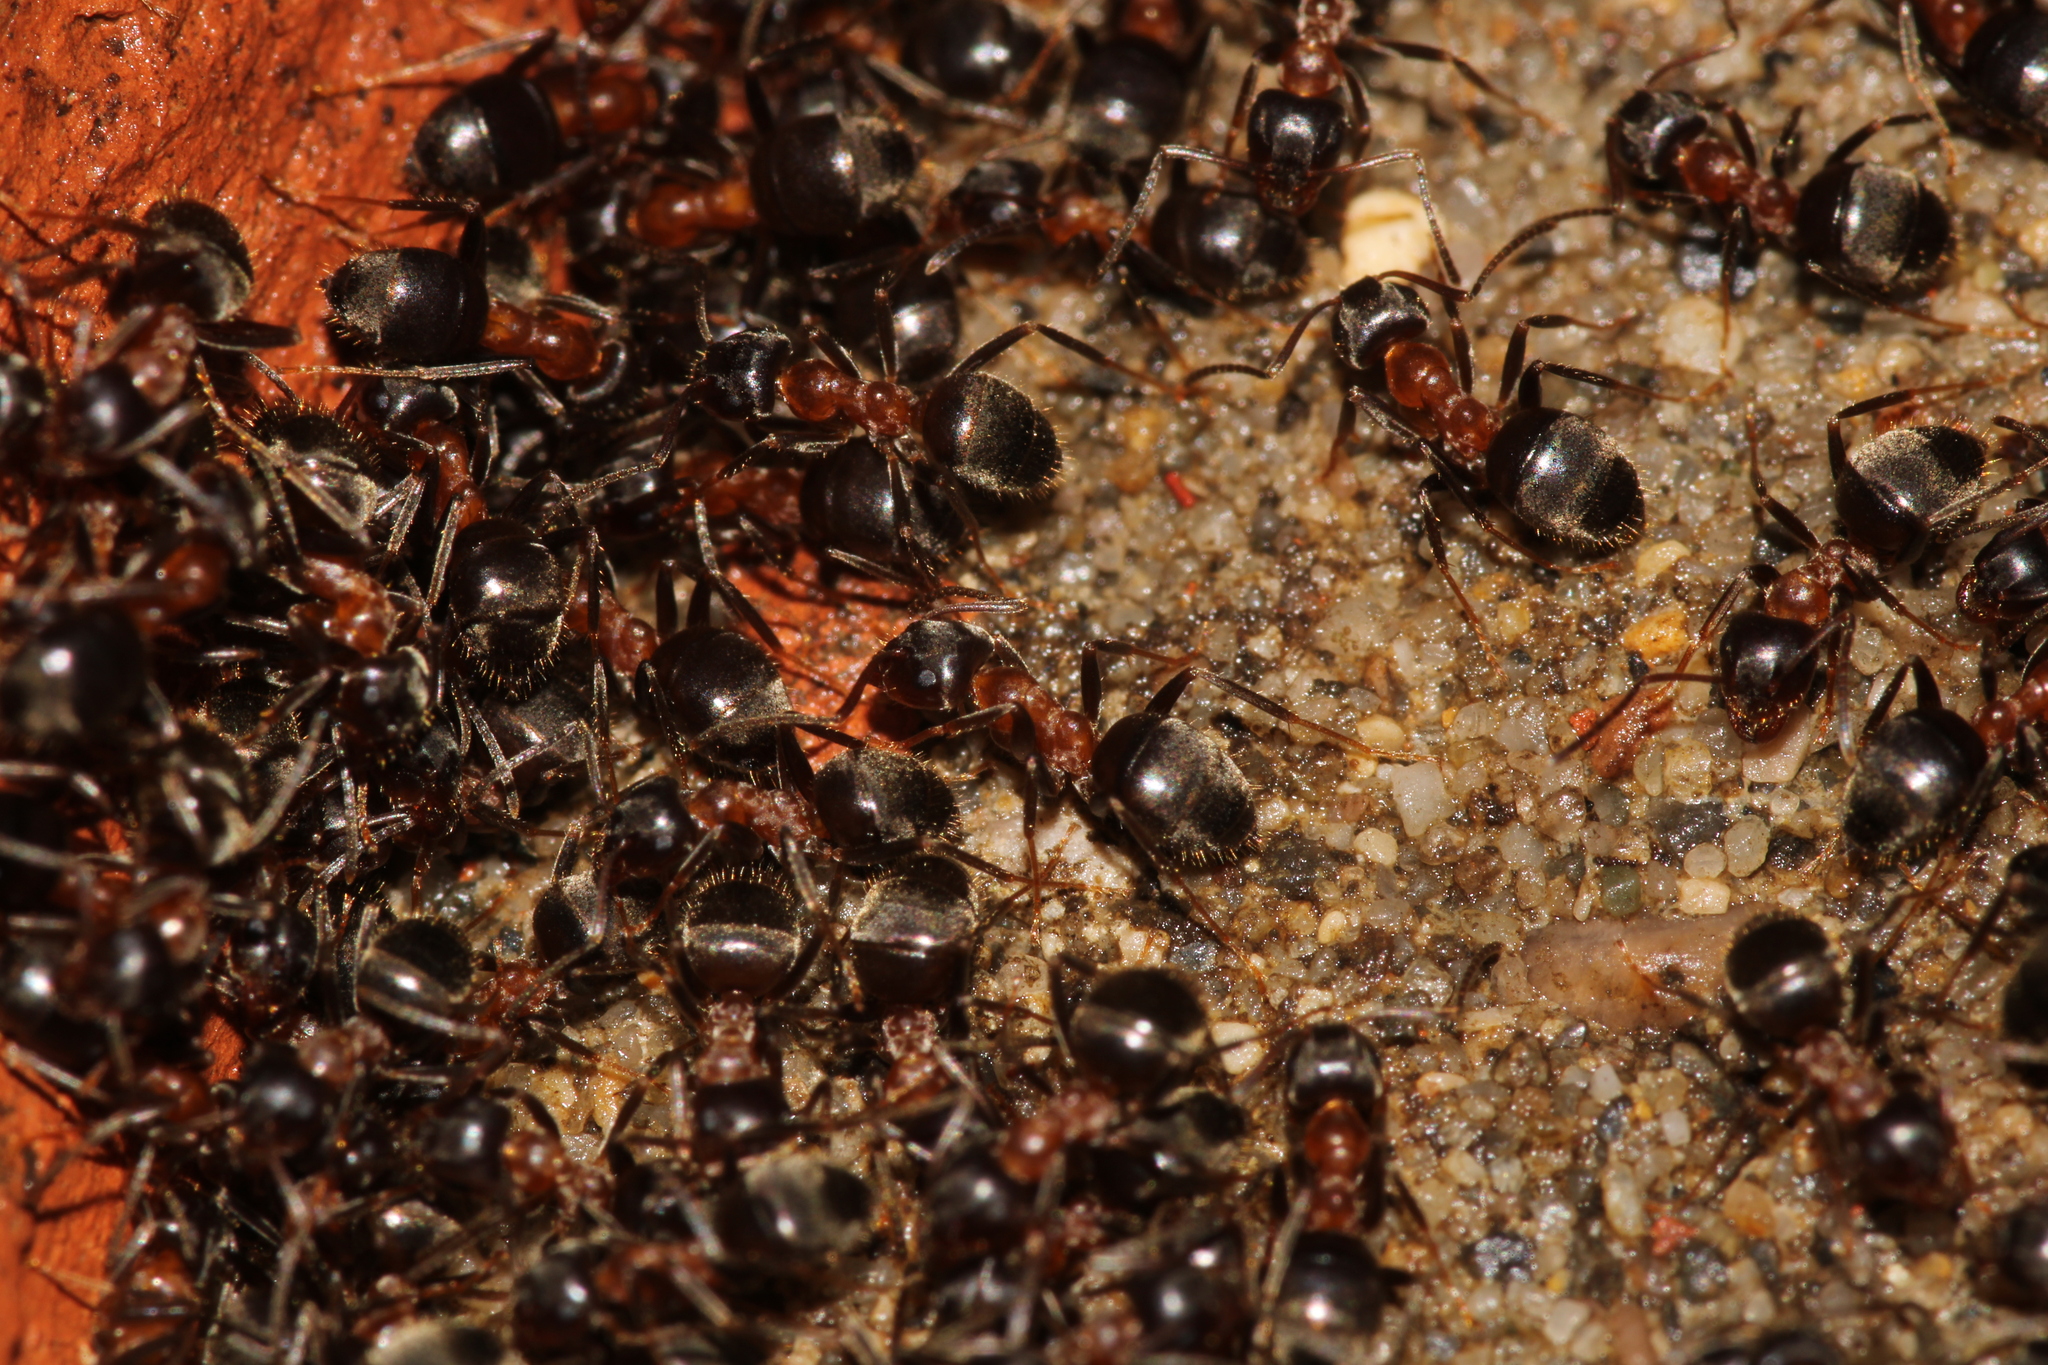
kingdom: Animalia
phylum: Arthropoda
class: Insecta
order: Hymenoptera
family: Formicidae
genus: Lasius
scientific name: Lasius emarginatus
